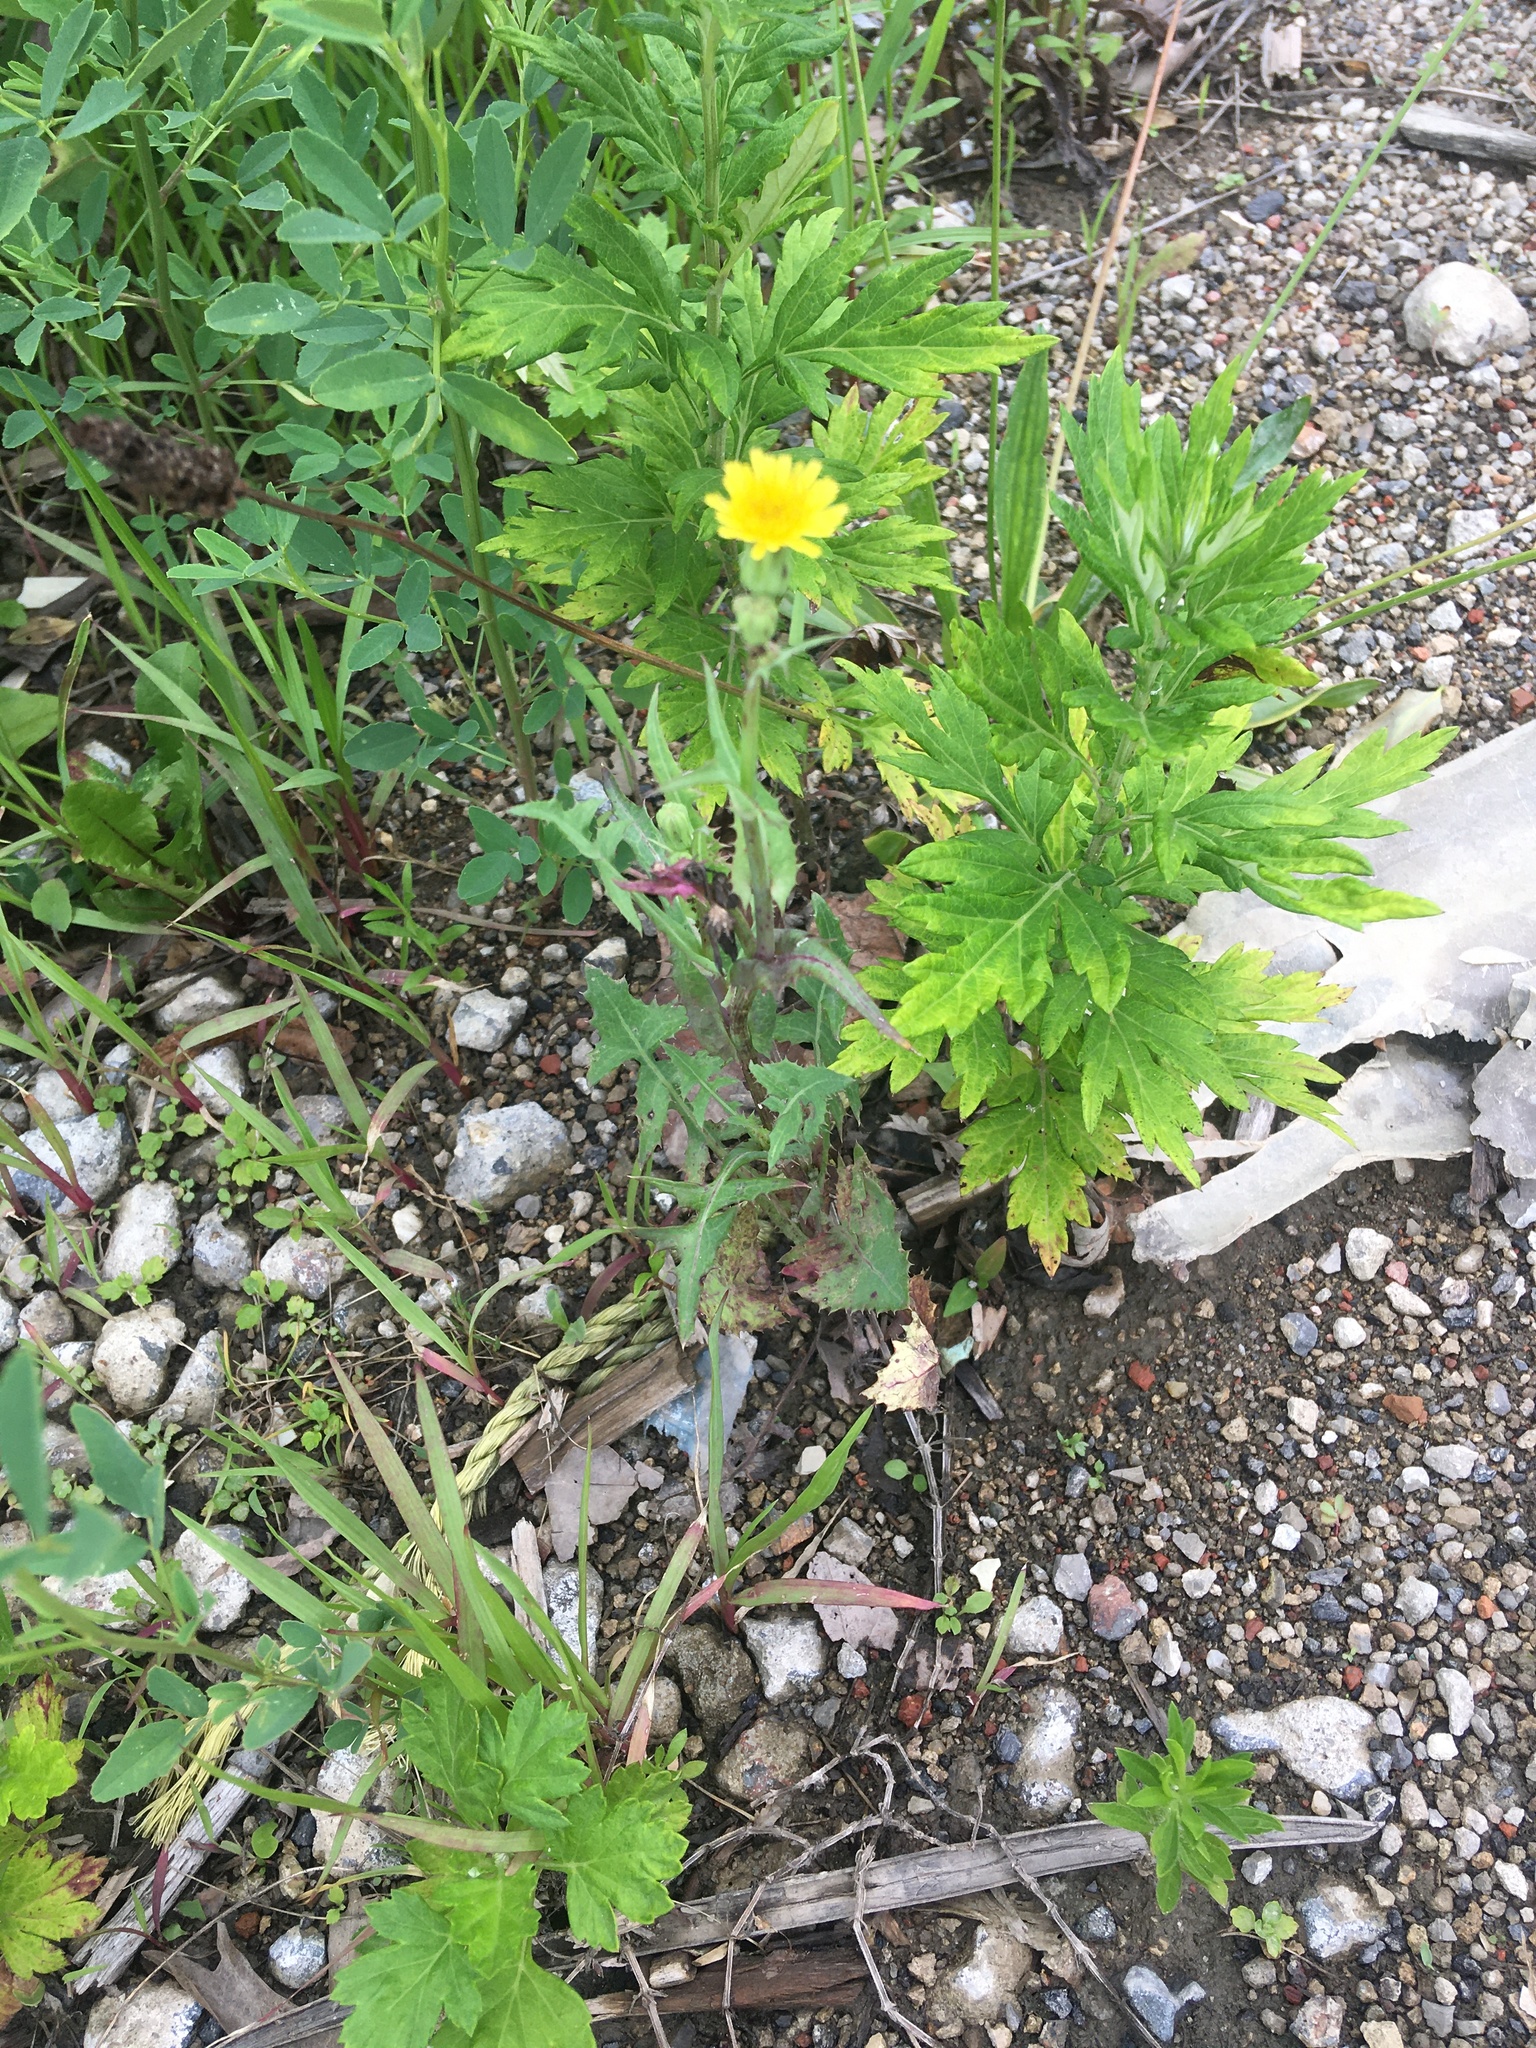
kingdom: Plantae
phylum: Tracheophyta
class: Magnoliopsida
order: Asterales
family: Asteraceae
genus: Sonchus
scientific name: Sonchus arvensis
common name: Perennial sow-thistle
